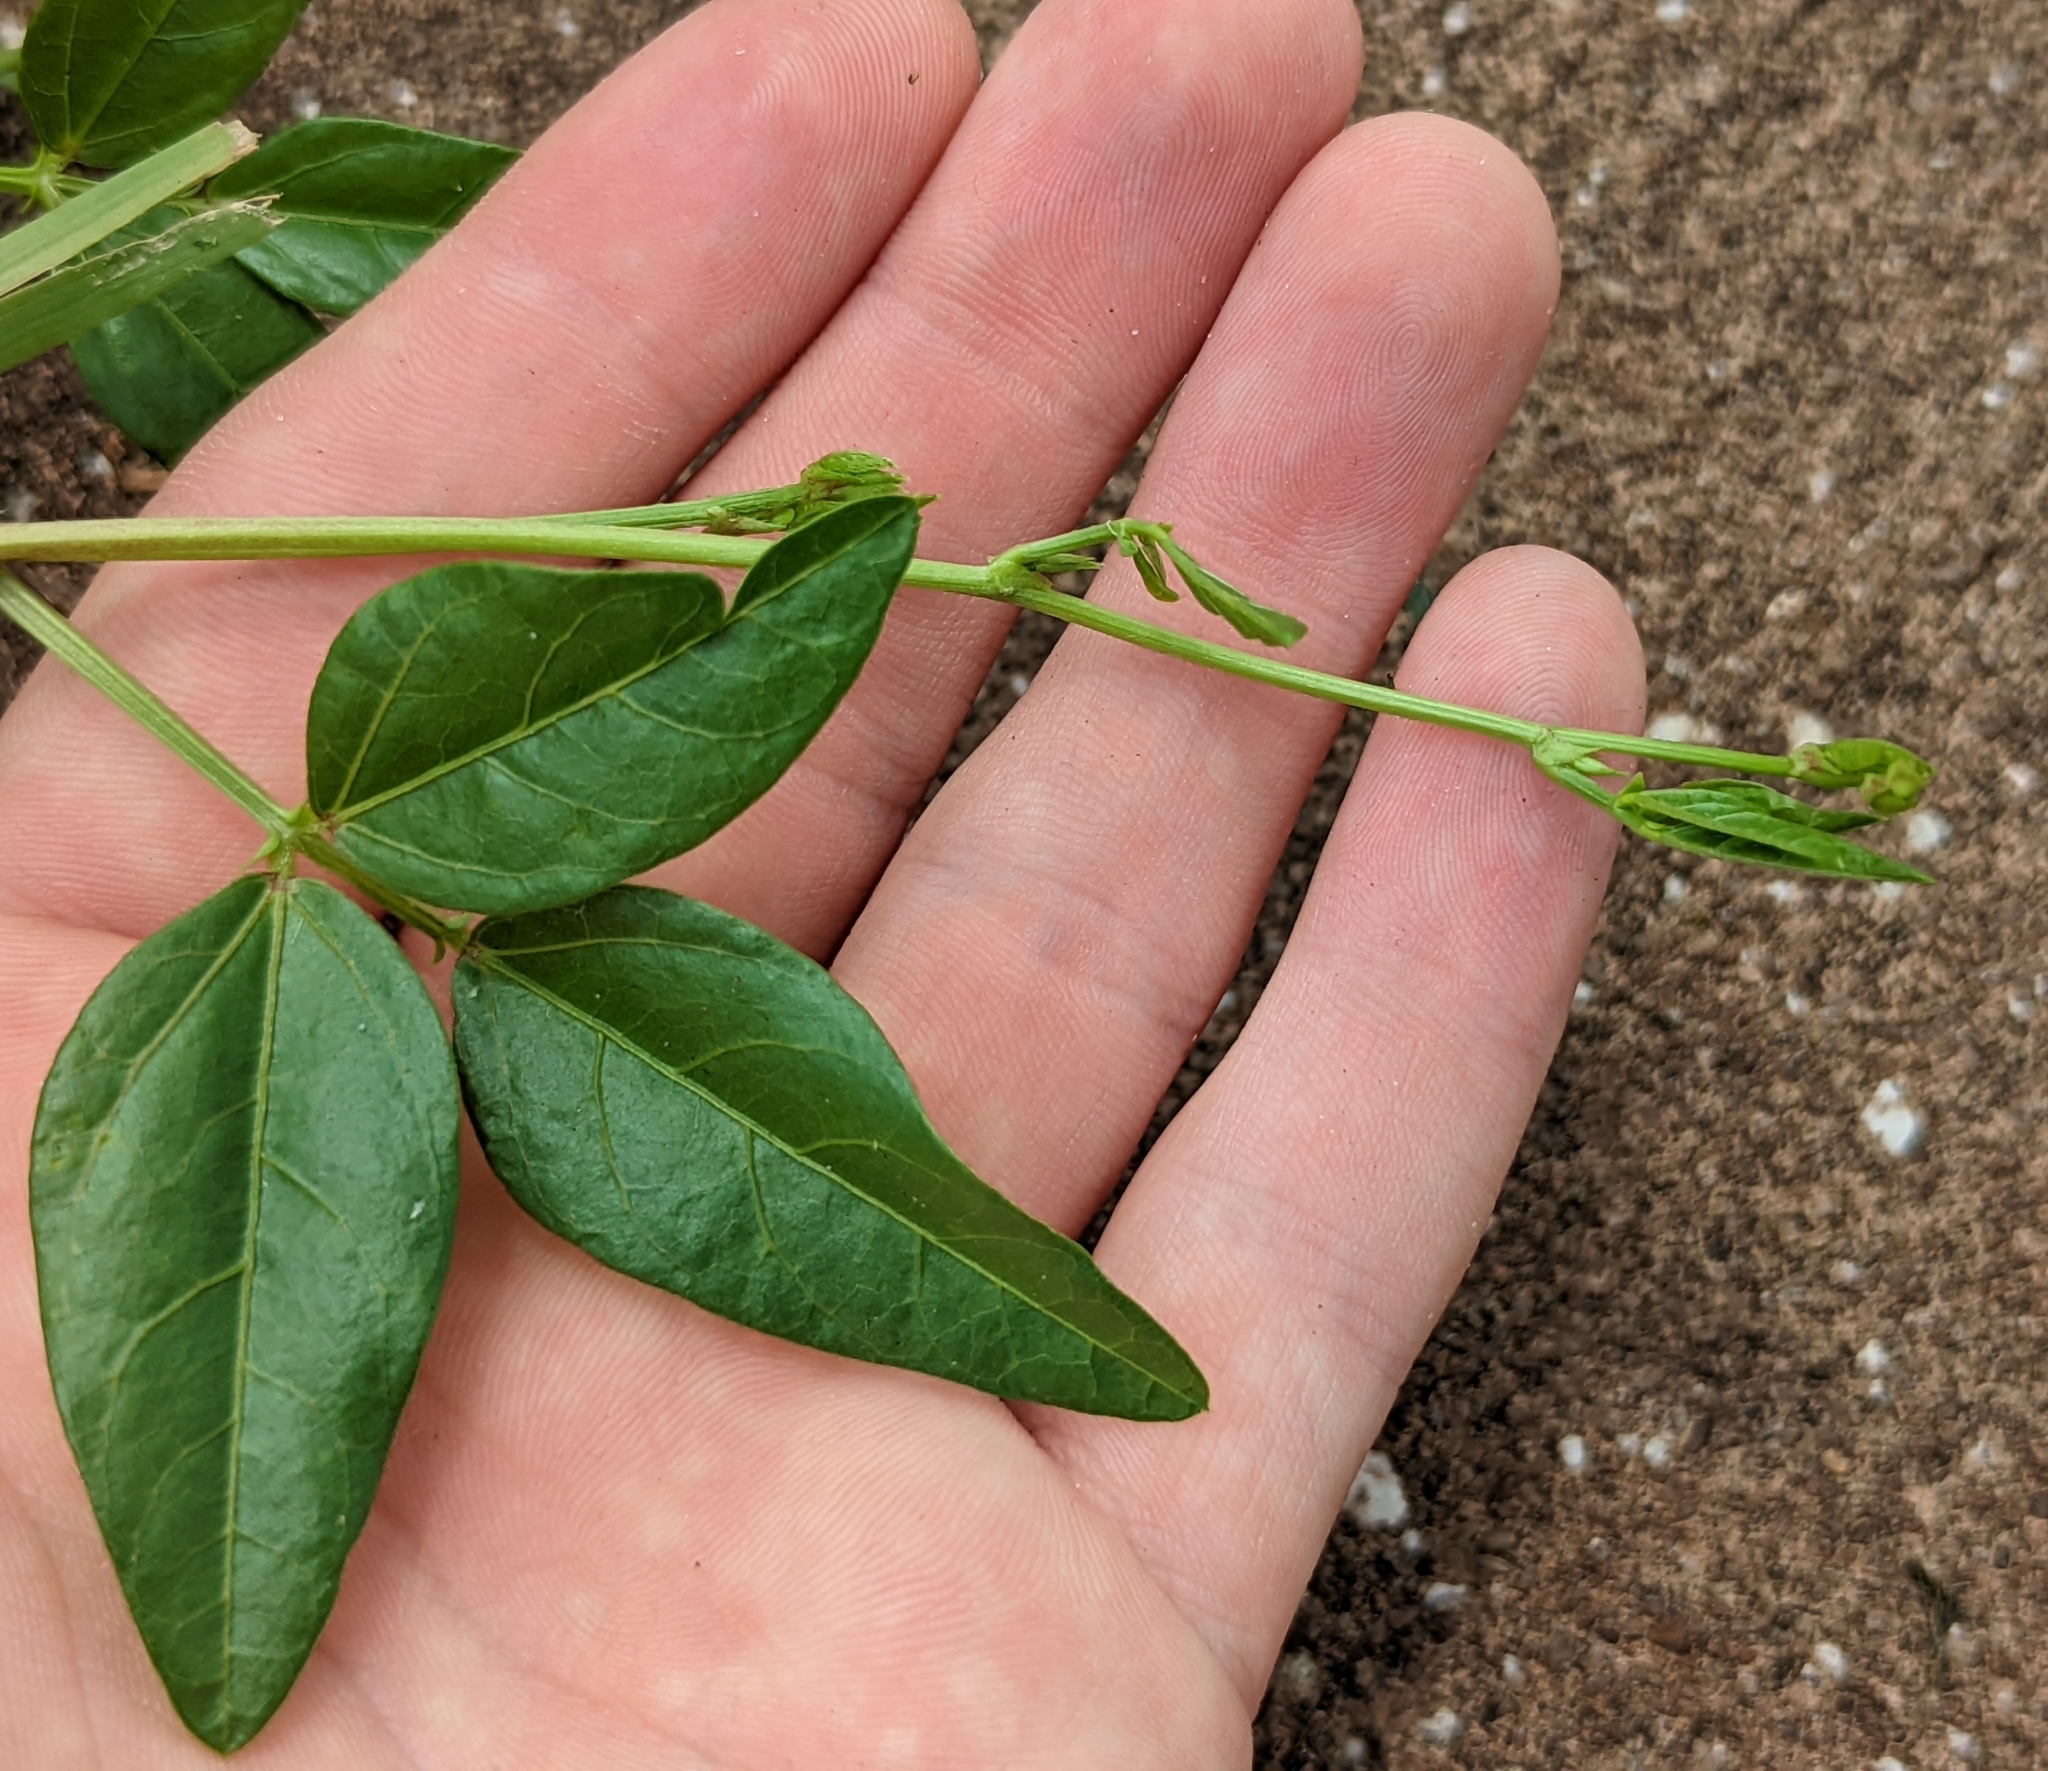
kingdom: Plantae
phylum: Tracheophyta
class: Magnoliopsida
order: Fabales
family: Fabaceae
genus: Vigna
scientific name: Vigna luteola
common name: Hairypod cowpea
